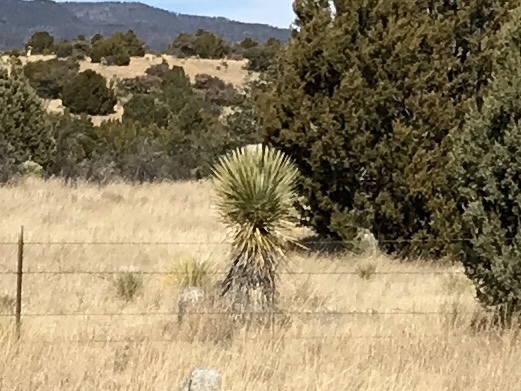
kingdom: Plantae
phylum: Tracheophyta
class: Liliopsida
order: Asparagales
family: Asparagaceae
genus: Yucca
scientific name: Yucca elata
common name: Palmella
